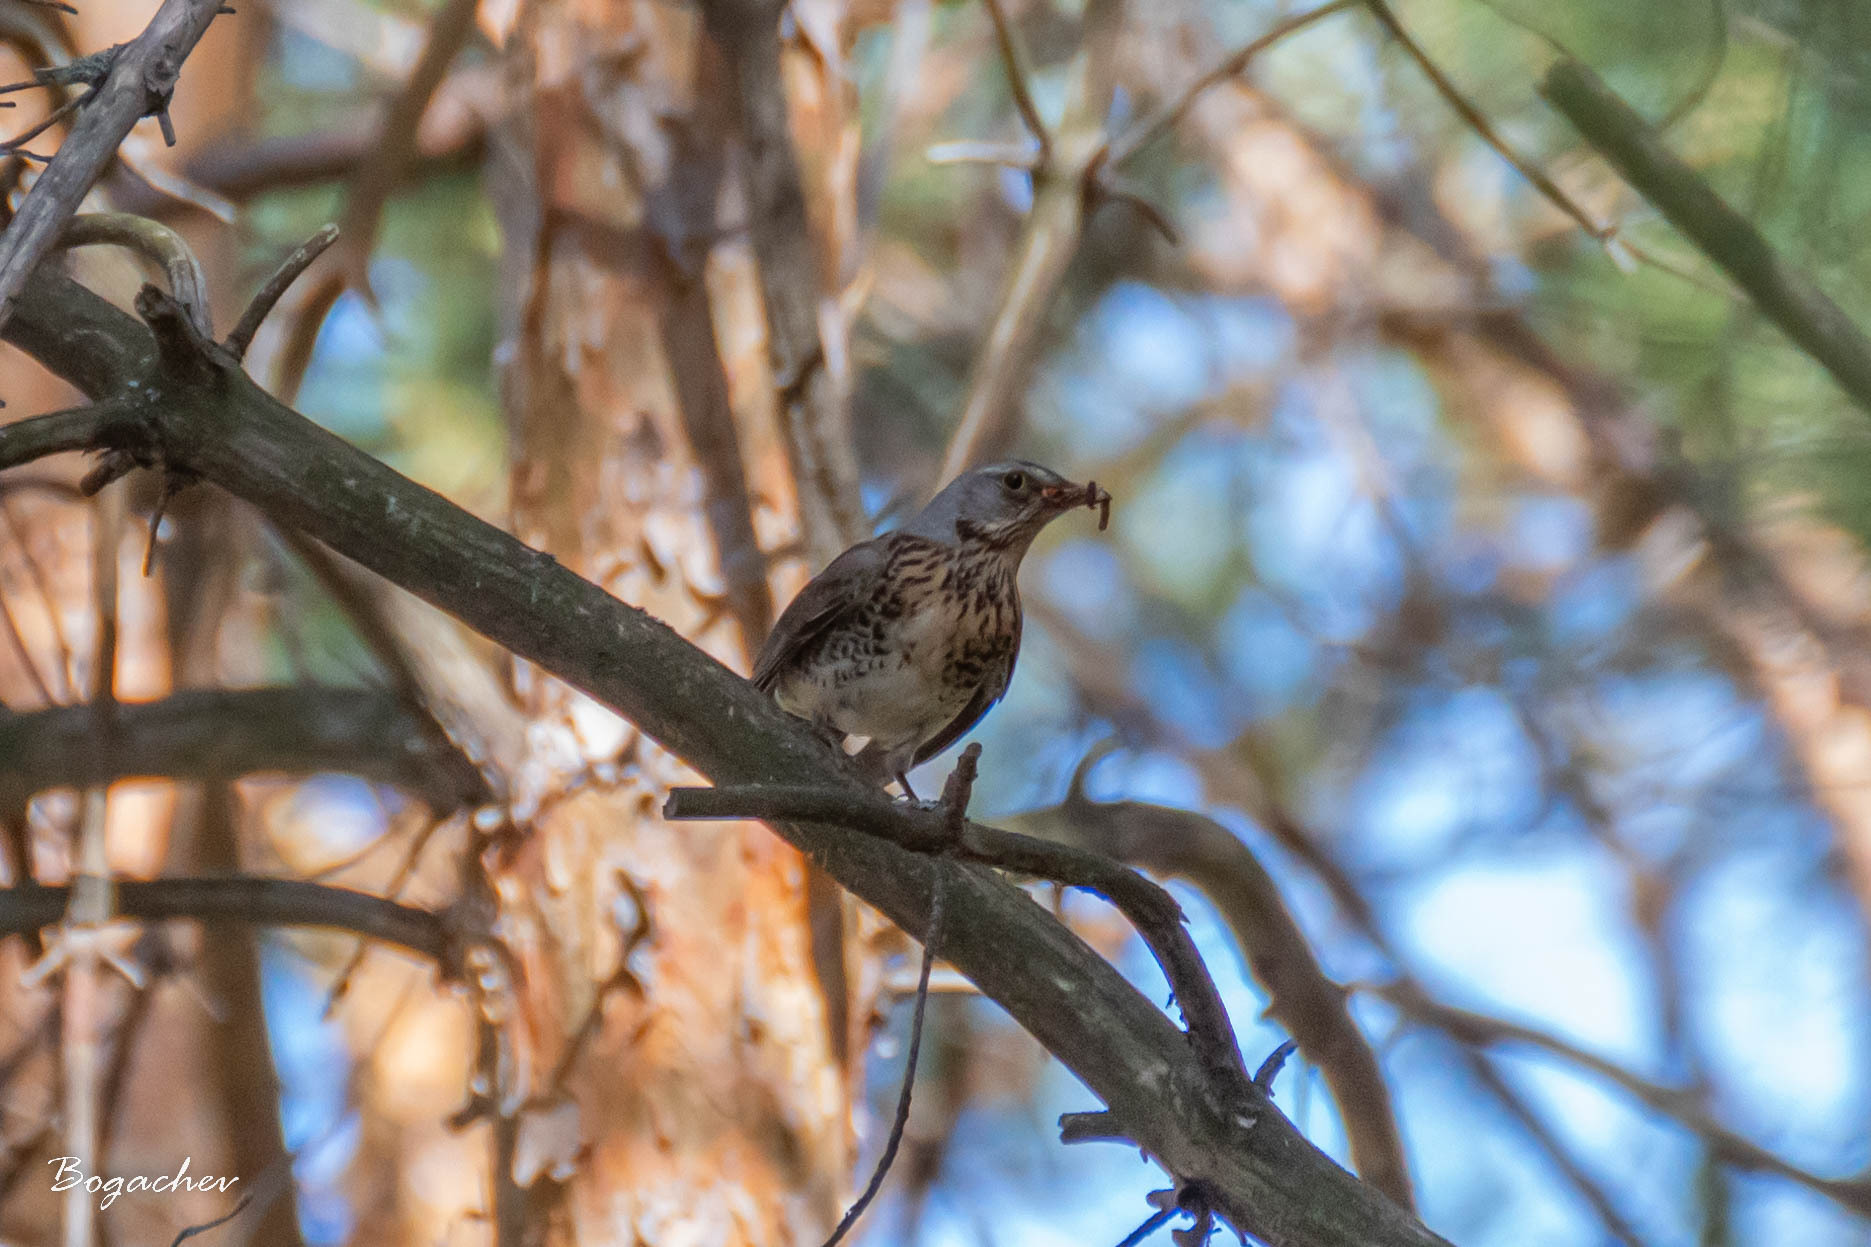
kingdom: Animalia
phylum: Chordata
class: Aves
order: Passeriformes
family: Turdidae
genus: Turdus
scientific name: Turdus pilaris
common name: Fieldfare
